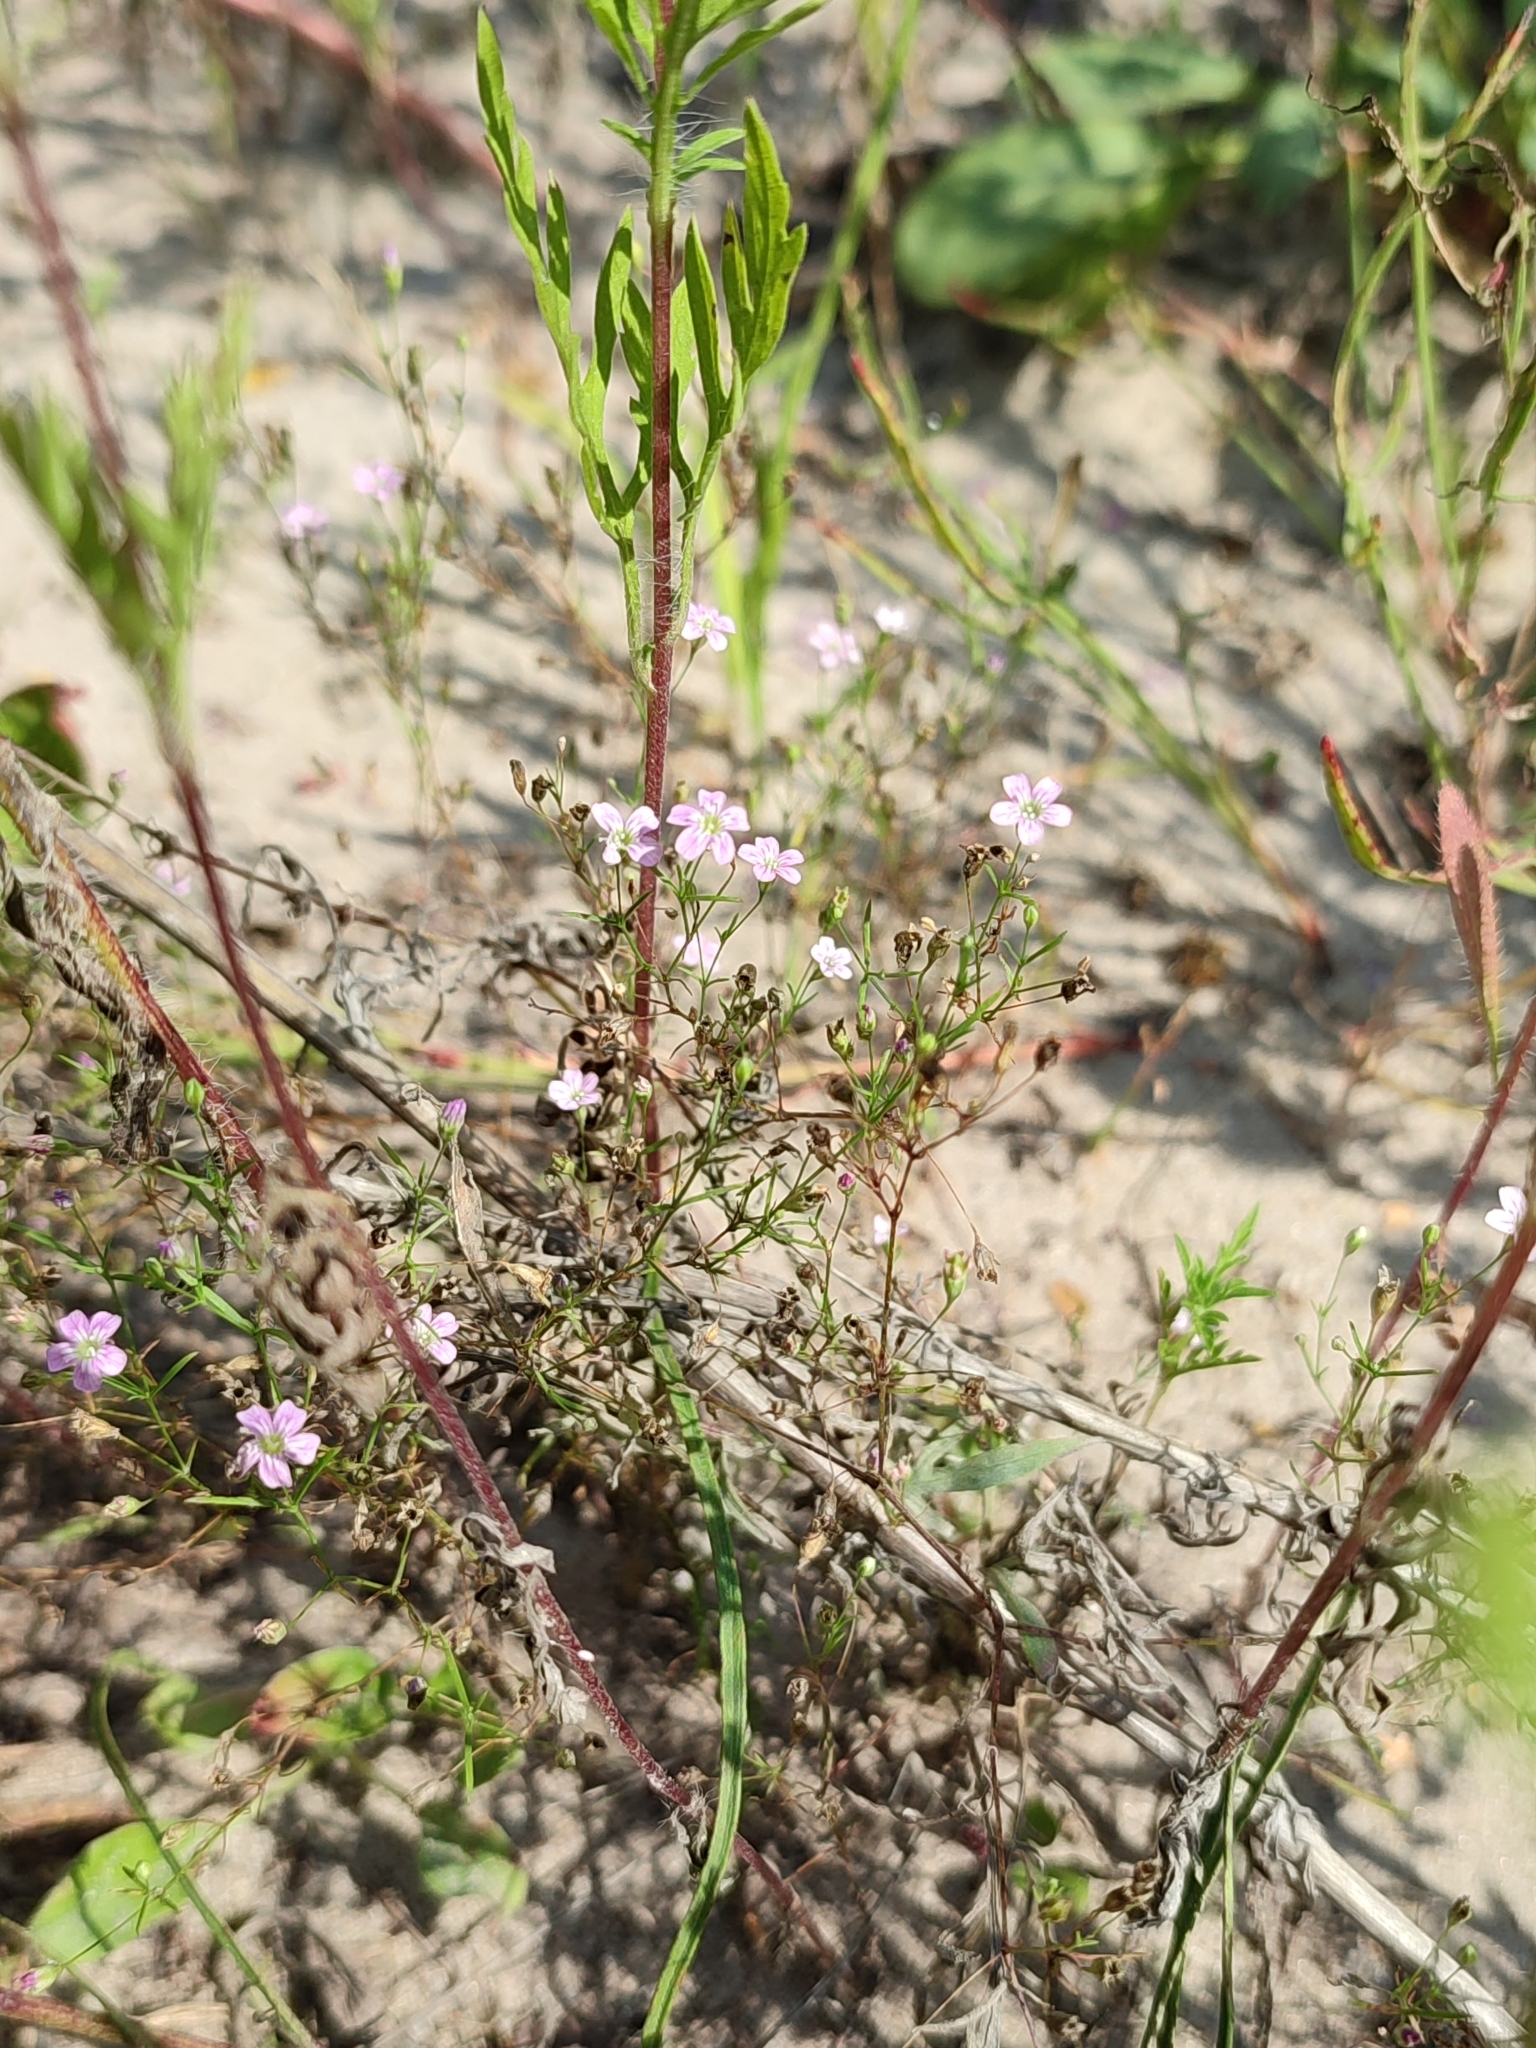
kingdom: Plantae
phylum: Tracheophyta
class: Magnoliopsida
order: Caryophyllales
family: Caryophyllaceae
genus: Psammophiliella
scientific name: Psammophiliella muralis
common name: Cushion baby's-breath
